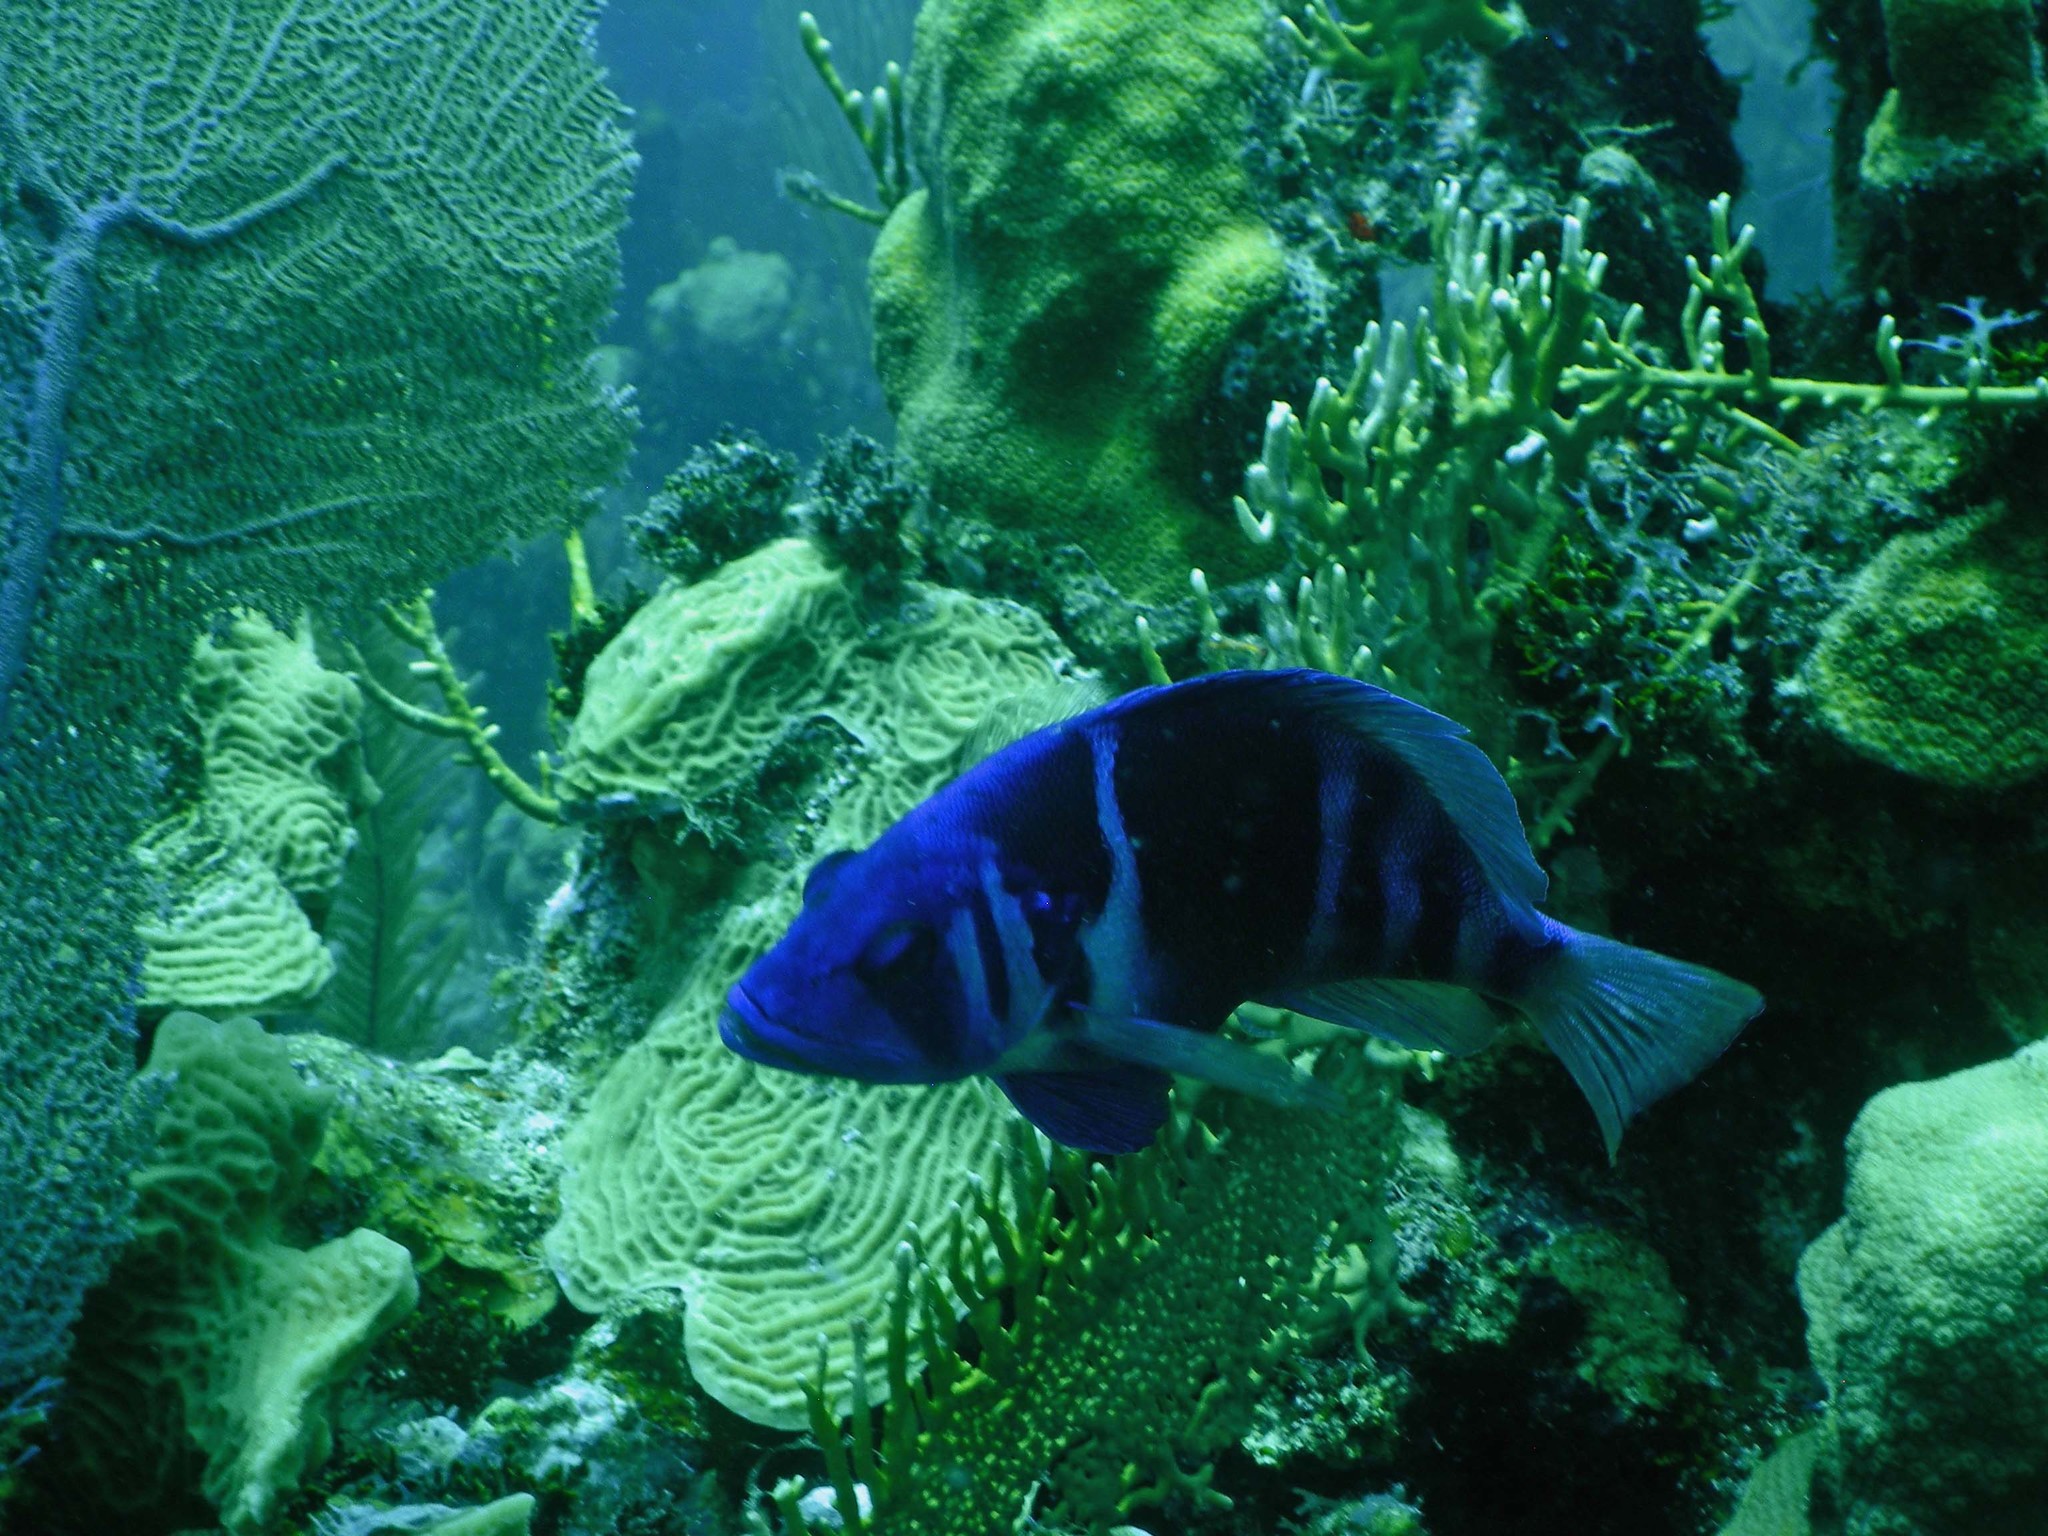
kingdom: Animalia
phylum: Chordata
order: Perciformes
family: Serranidae
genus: Hypoplectrus
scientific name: Hypoplectrus indigo
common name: Indigo hamlet
